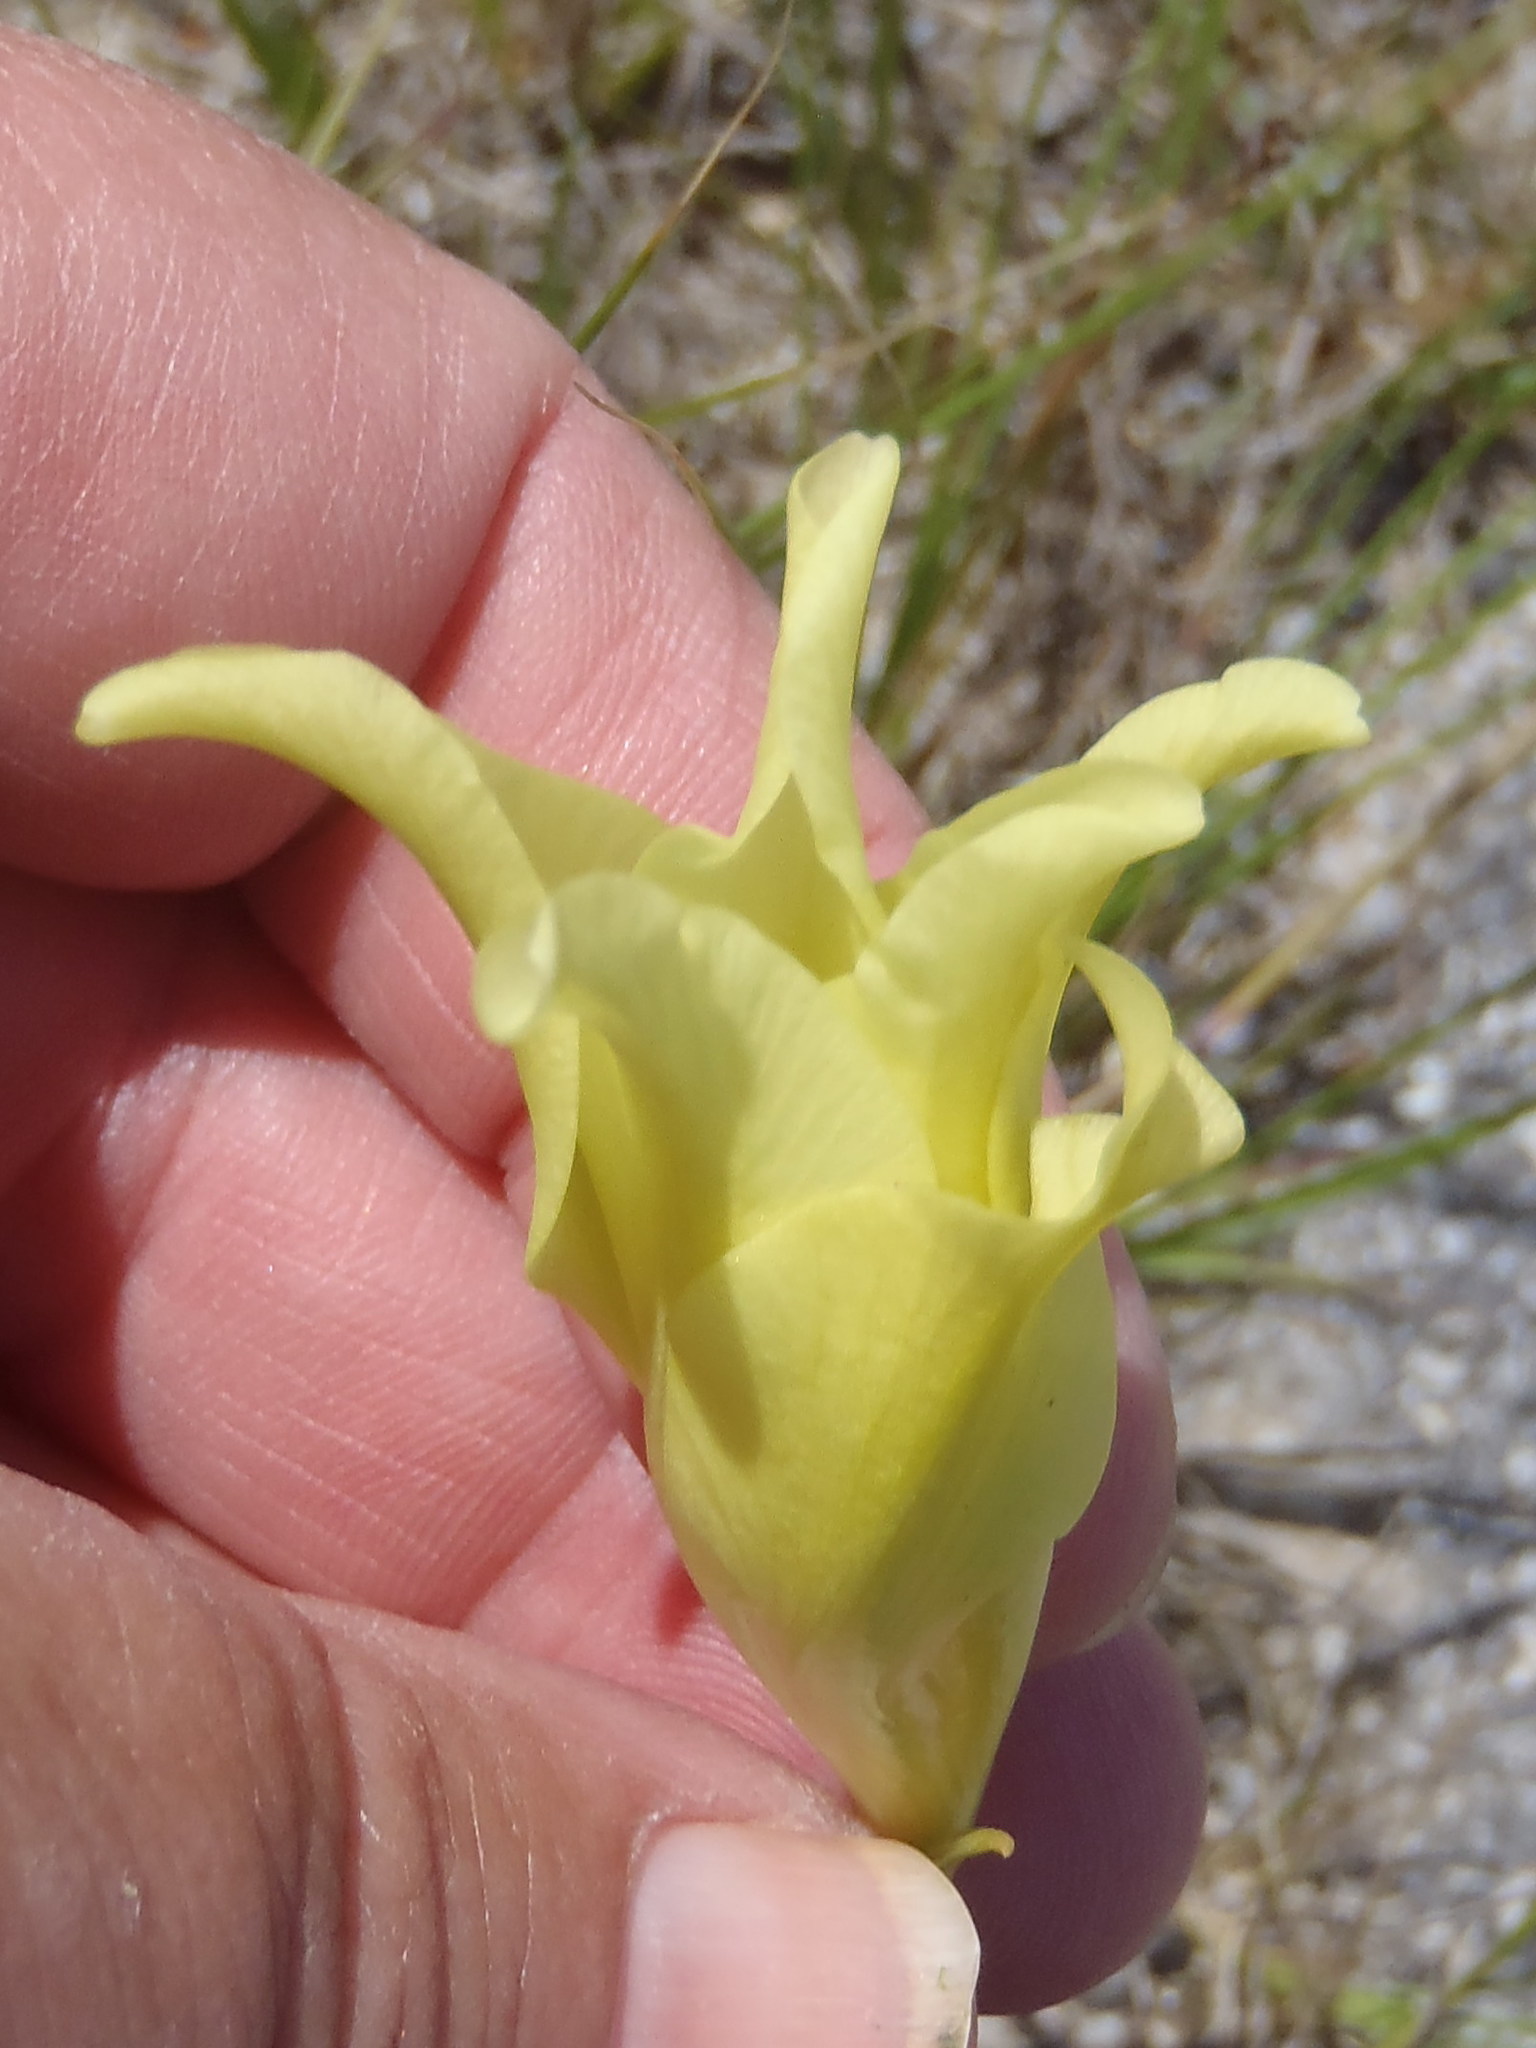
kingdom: Plantae
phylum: Tracheophyta
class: Liliopsida
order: Asparagales
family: Iridaceae
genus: Gladiolus
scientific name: Gladiolus longicollis
